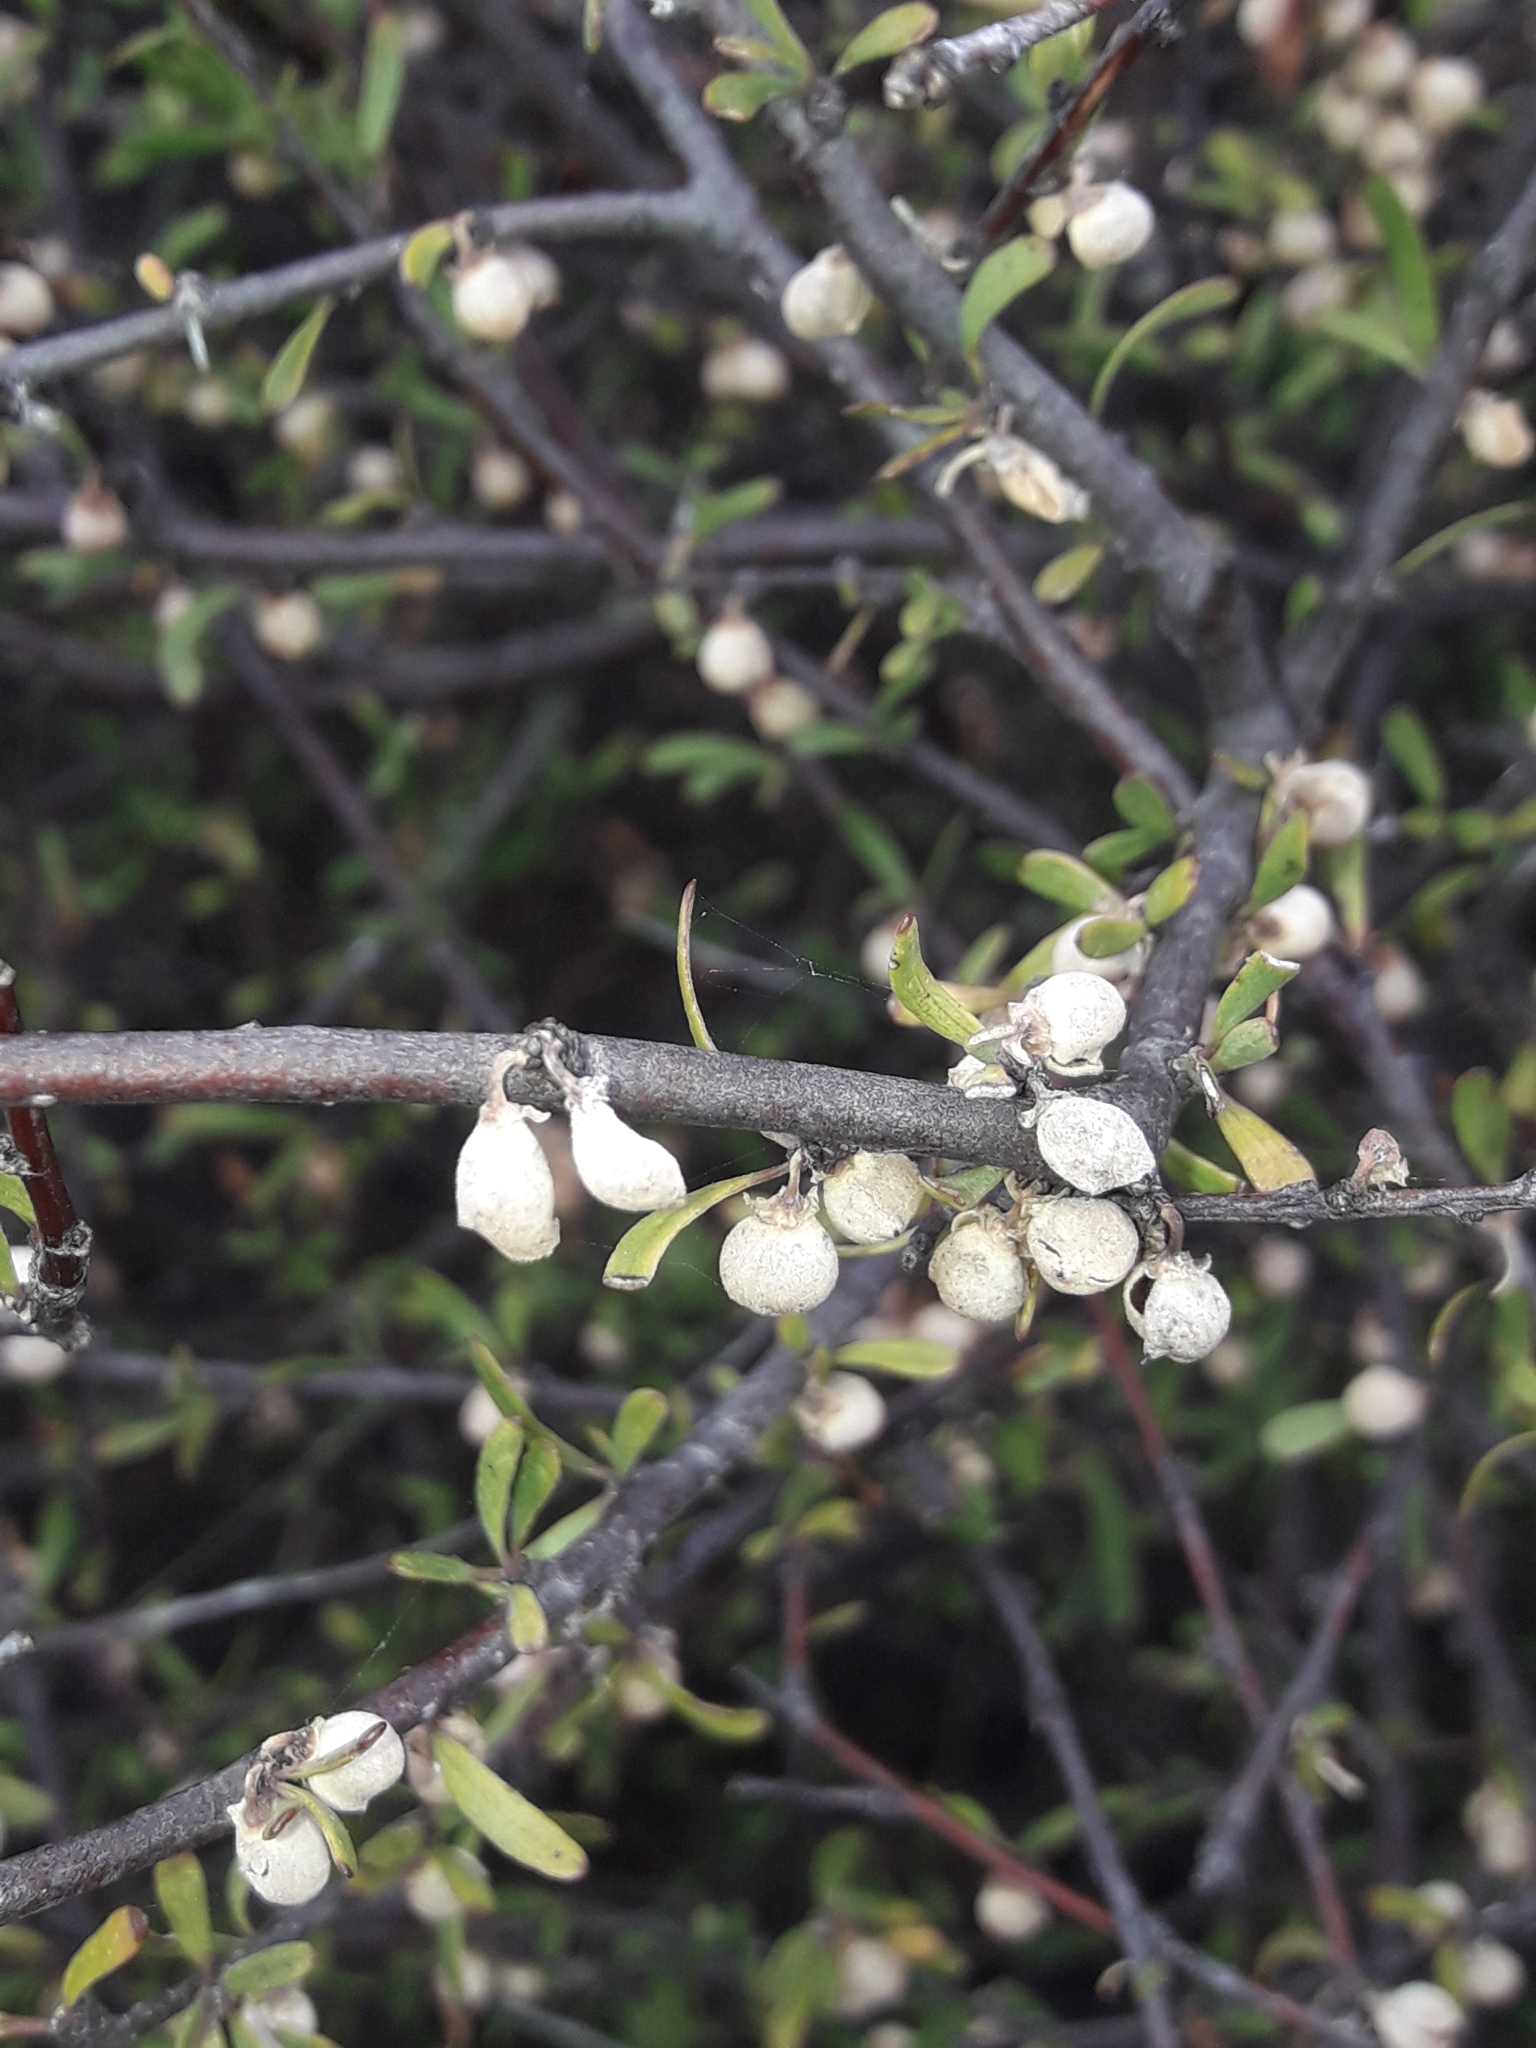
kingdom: Plantae
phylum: Tracheophyta
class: Magnoliopsida
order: Malvales
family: Malvaceae
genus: Plagianthus
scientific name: Plagianthus divaricatus
